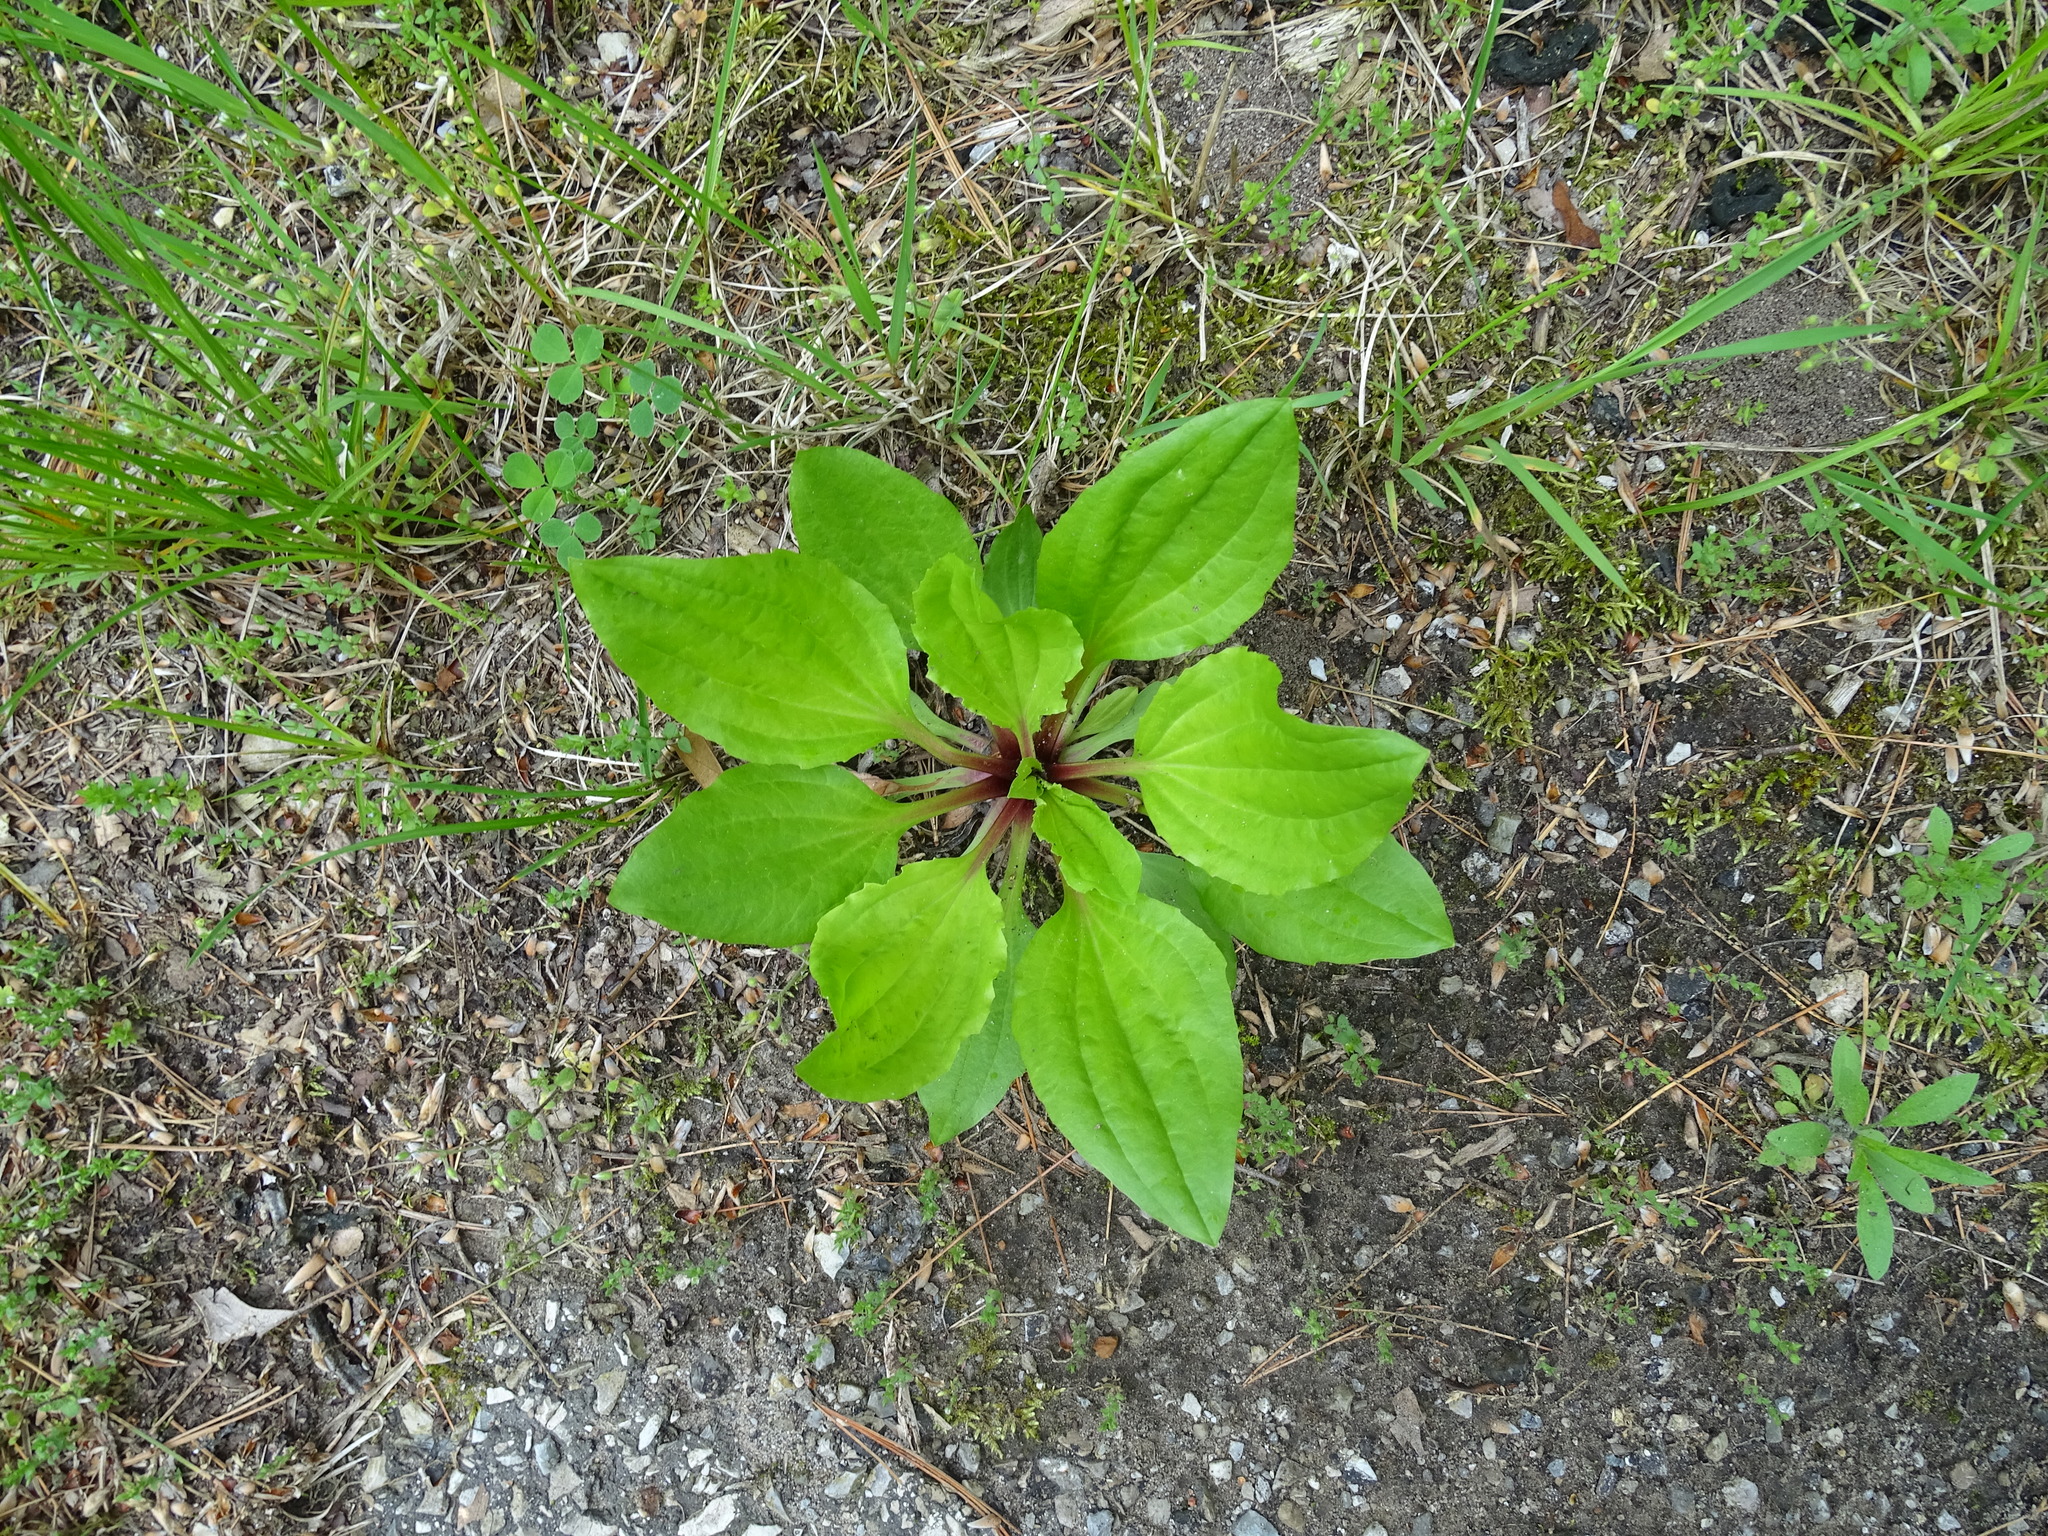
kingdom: Plantae
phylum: Tracheophyta
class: Magnoliopsida
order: Lamiales
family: Plantaginaceae
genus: Plantago
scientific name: Plantago rugelii
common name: American plantain
